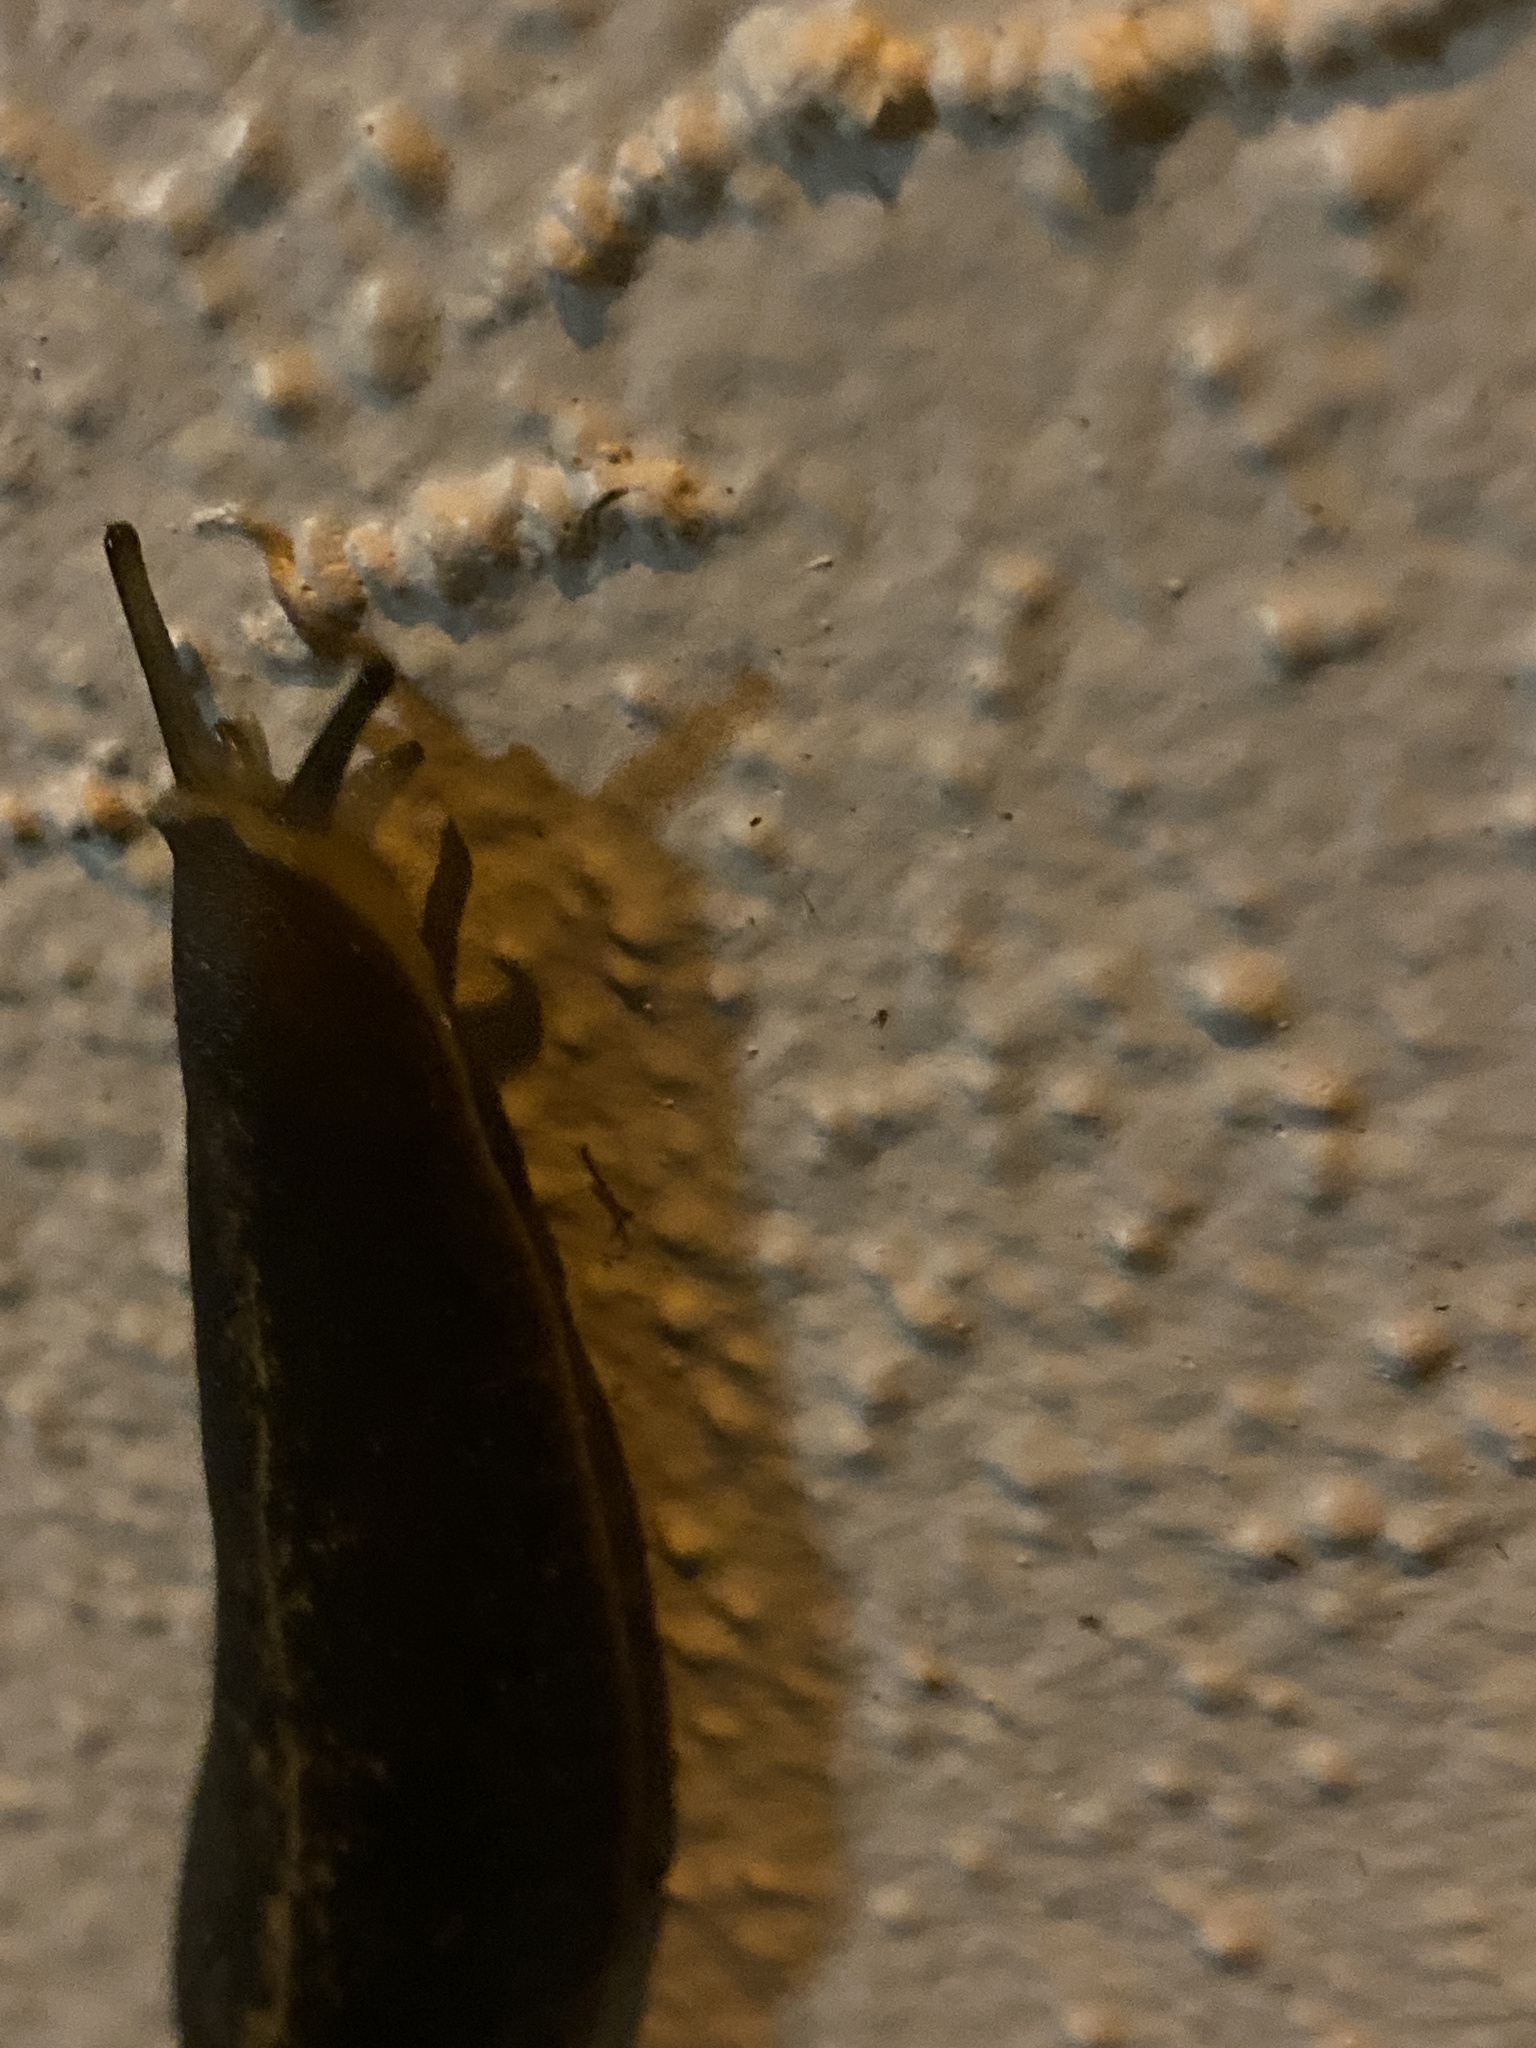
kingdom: Animalia
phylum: Mollusca
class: Gastropoda
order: Systellommatophora
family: Veronicellidae
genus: Laevicaulis
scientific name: Laevicaulis alte
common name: Tropical leatherleaf
